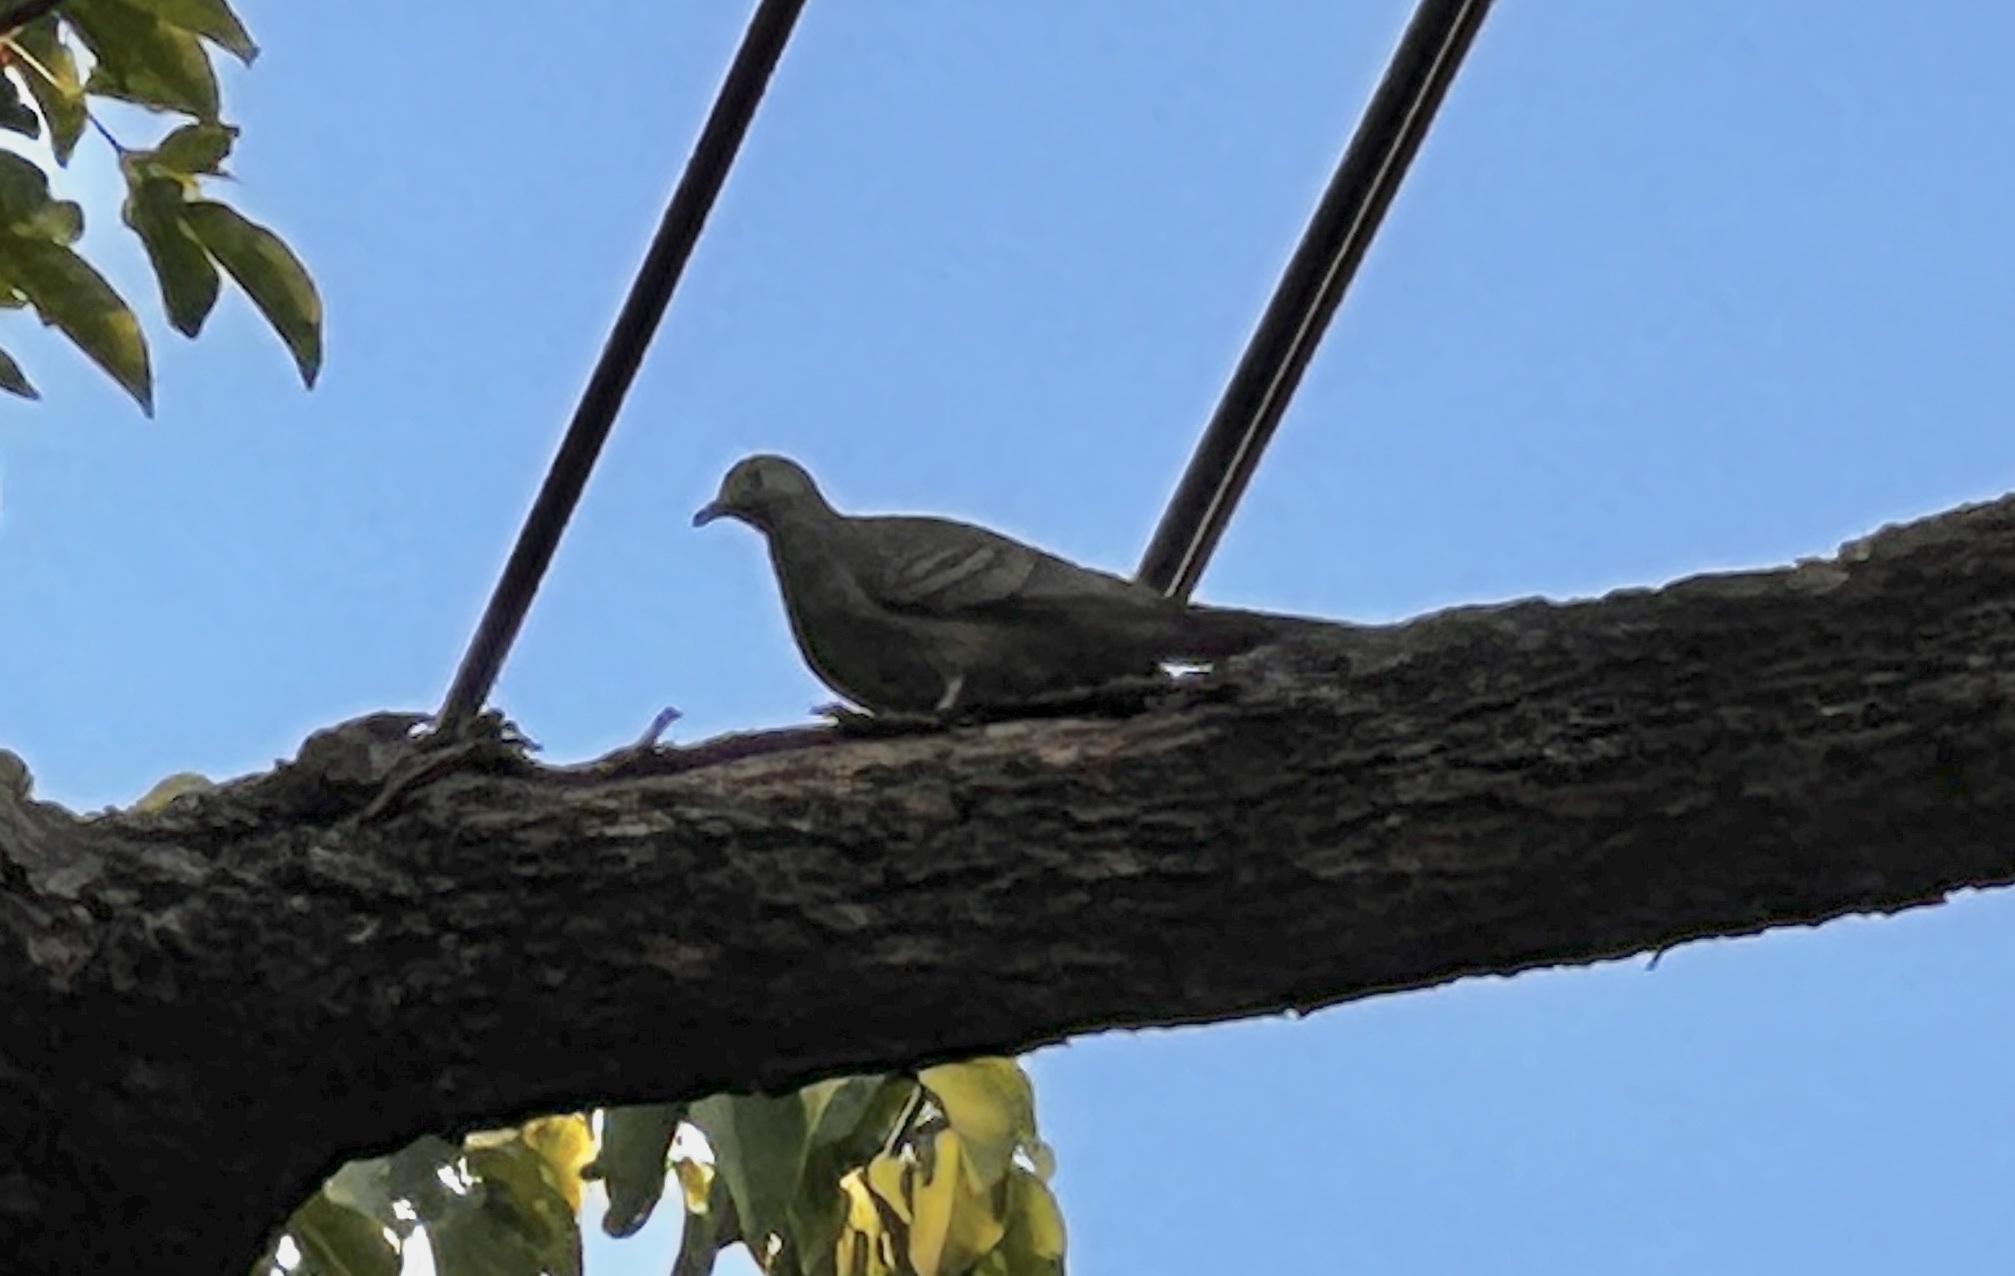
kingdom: Animalia
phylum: Chordata
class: Aves
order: Columbiformes
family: Columbidae
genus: Geopelia
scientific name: Geopelia striata
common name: Zebra dove
